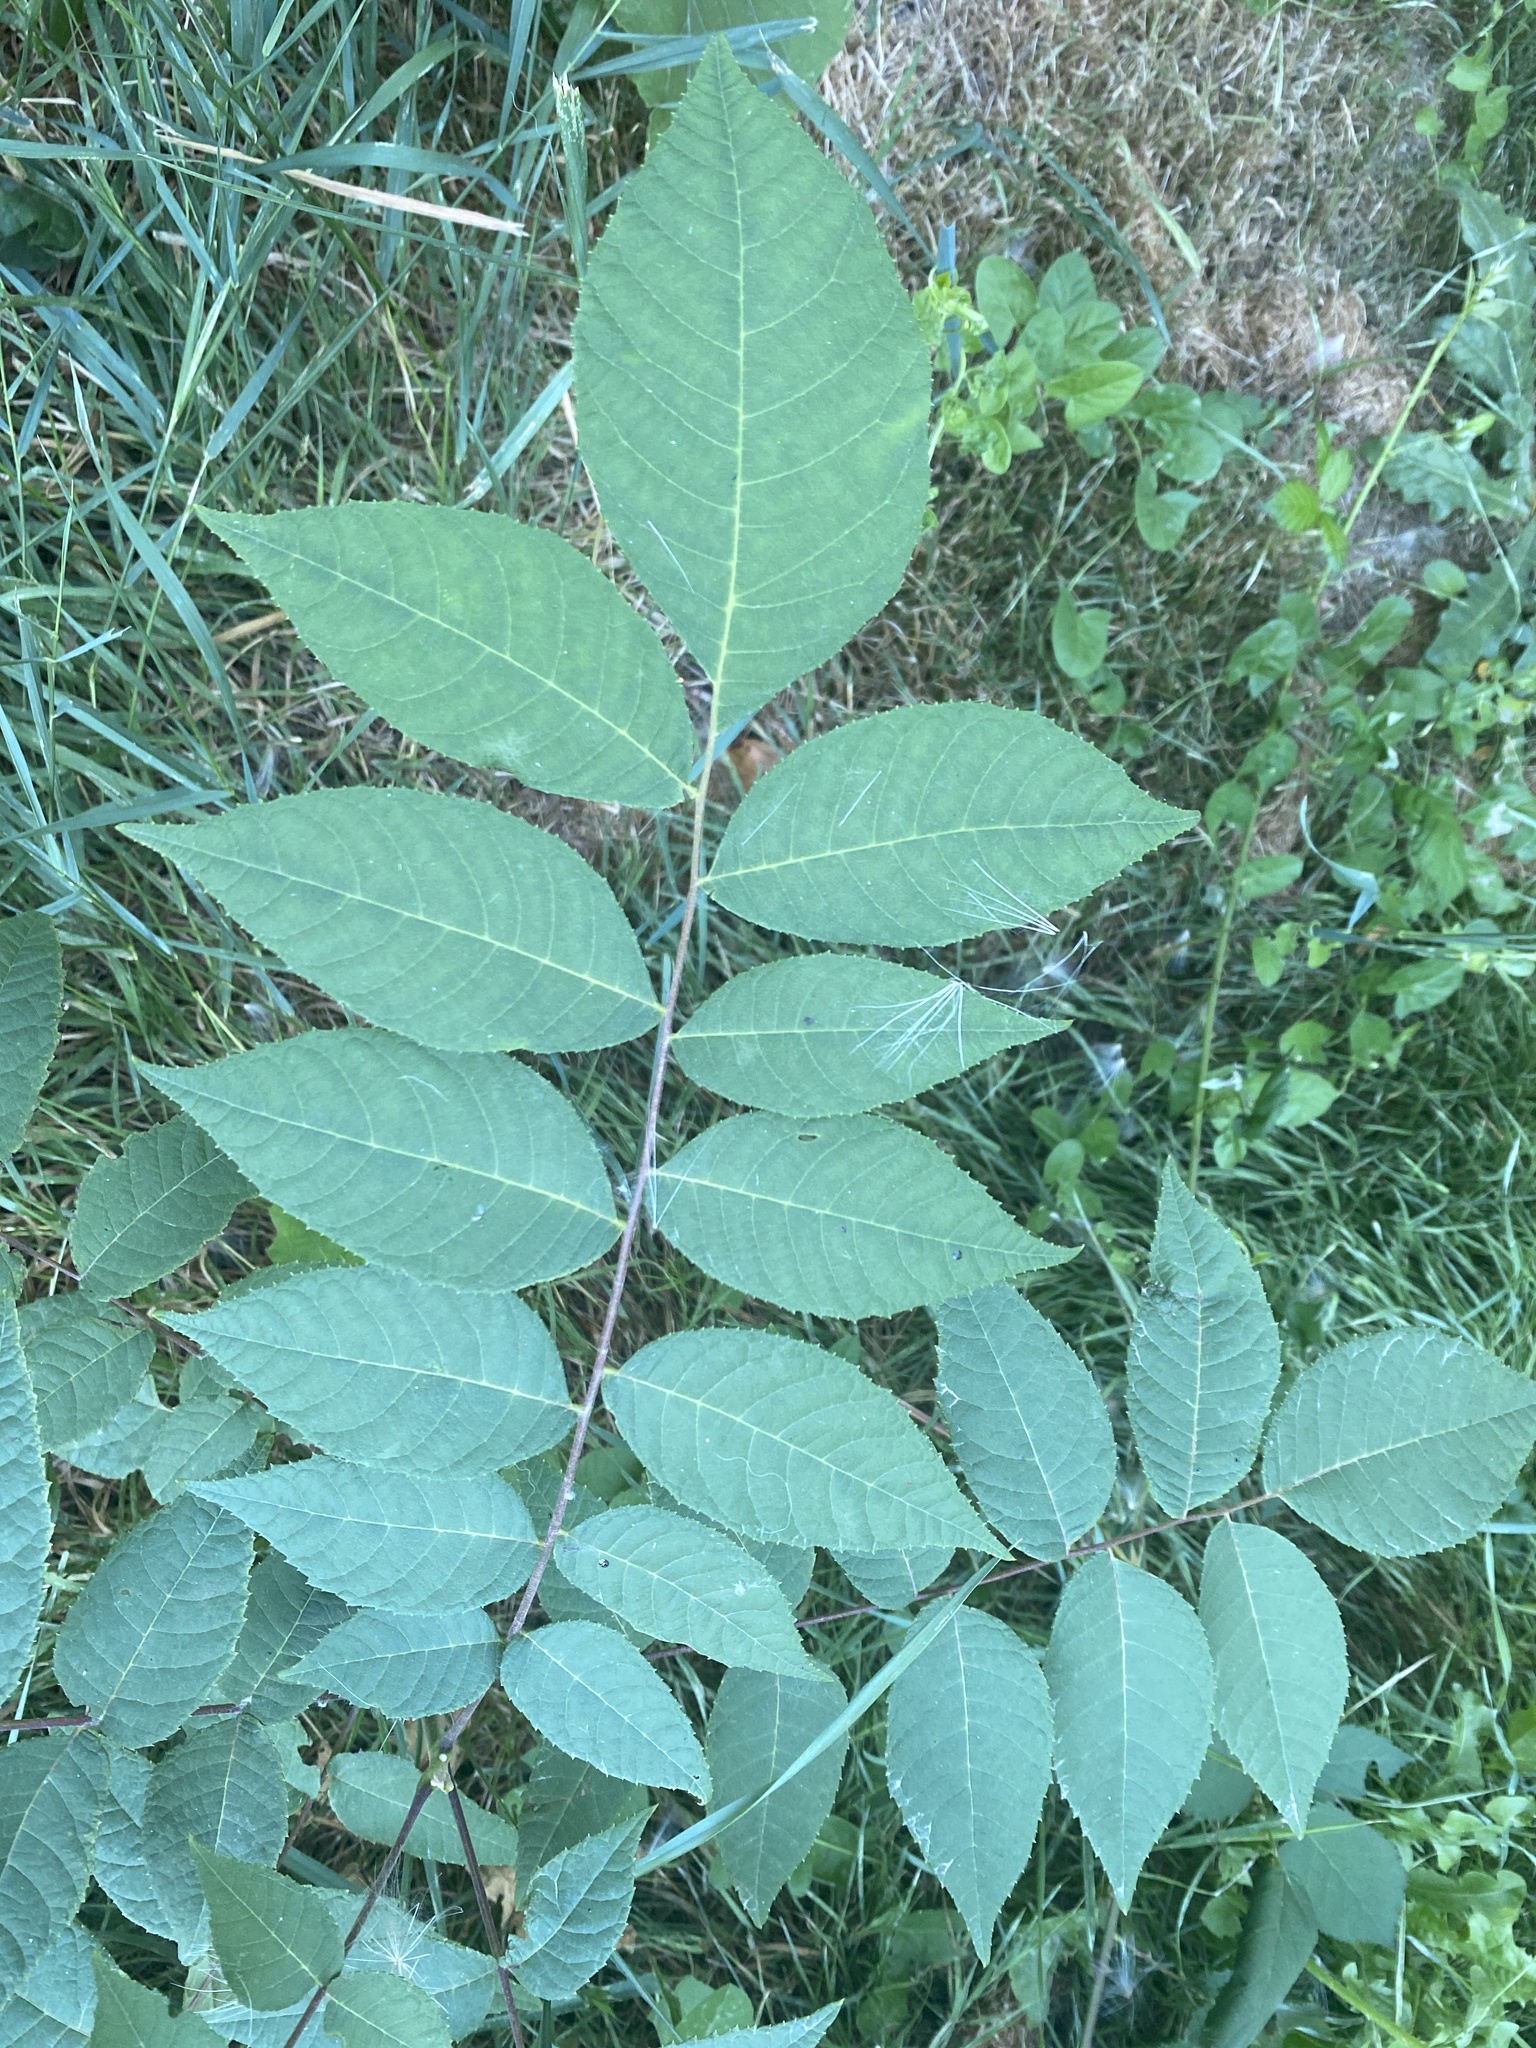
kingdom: Plantae
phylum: Tracheophyta
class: Magnoliopsida
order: Fagales
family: Juglandaceae
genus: Juglans
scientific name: Juglans nigra
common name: Black walnut
